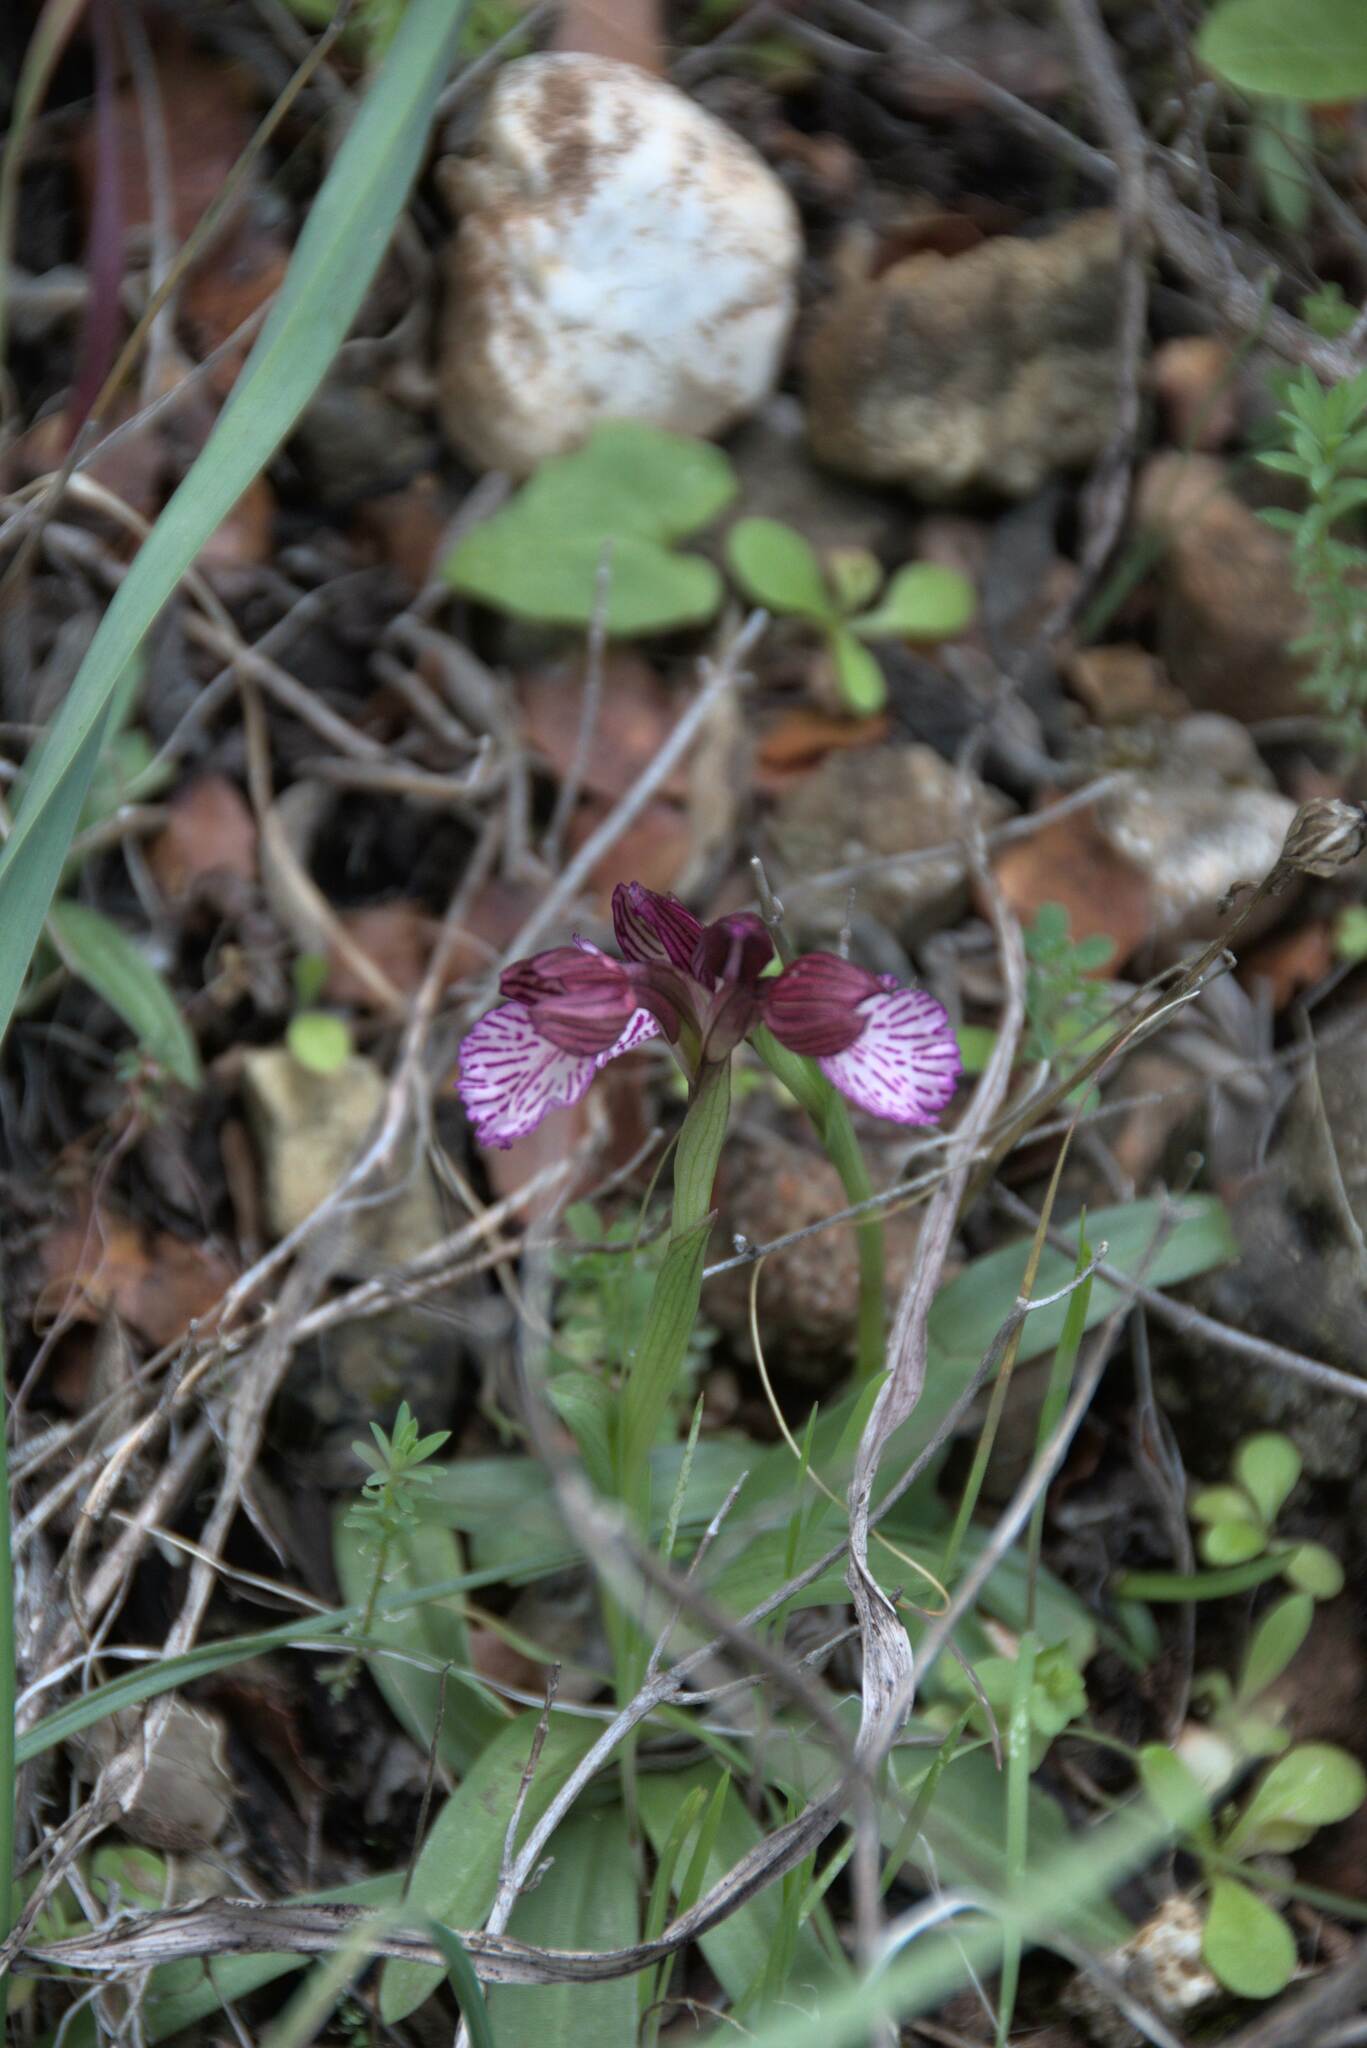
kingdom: Plantae
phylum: Tracheophyta
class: Liliopsida
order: Asparagales
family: Orchidaceae
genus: Anacamptis
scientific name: Anacamptis papilionacea
